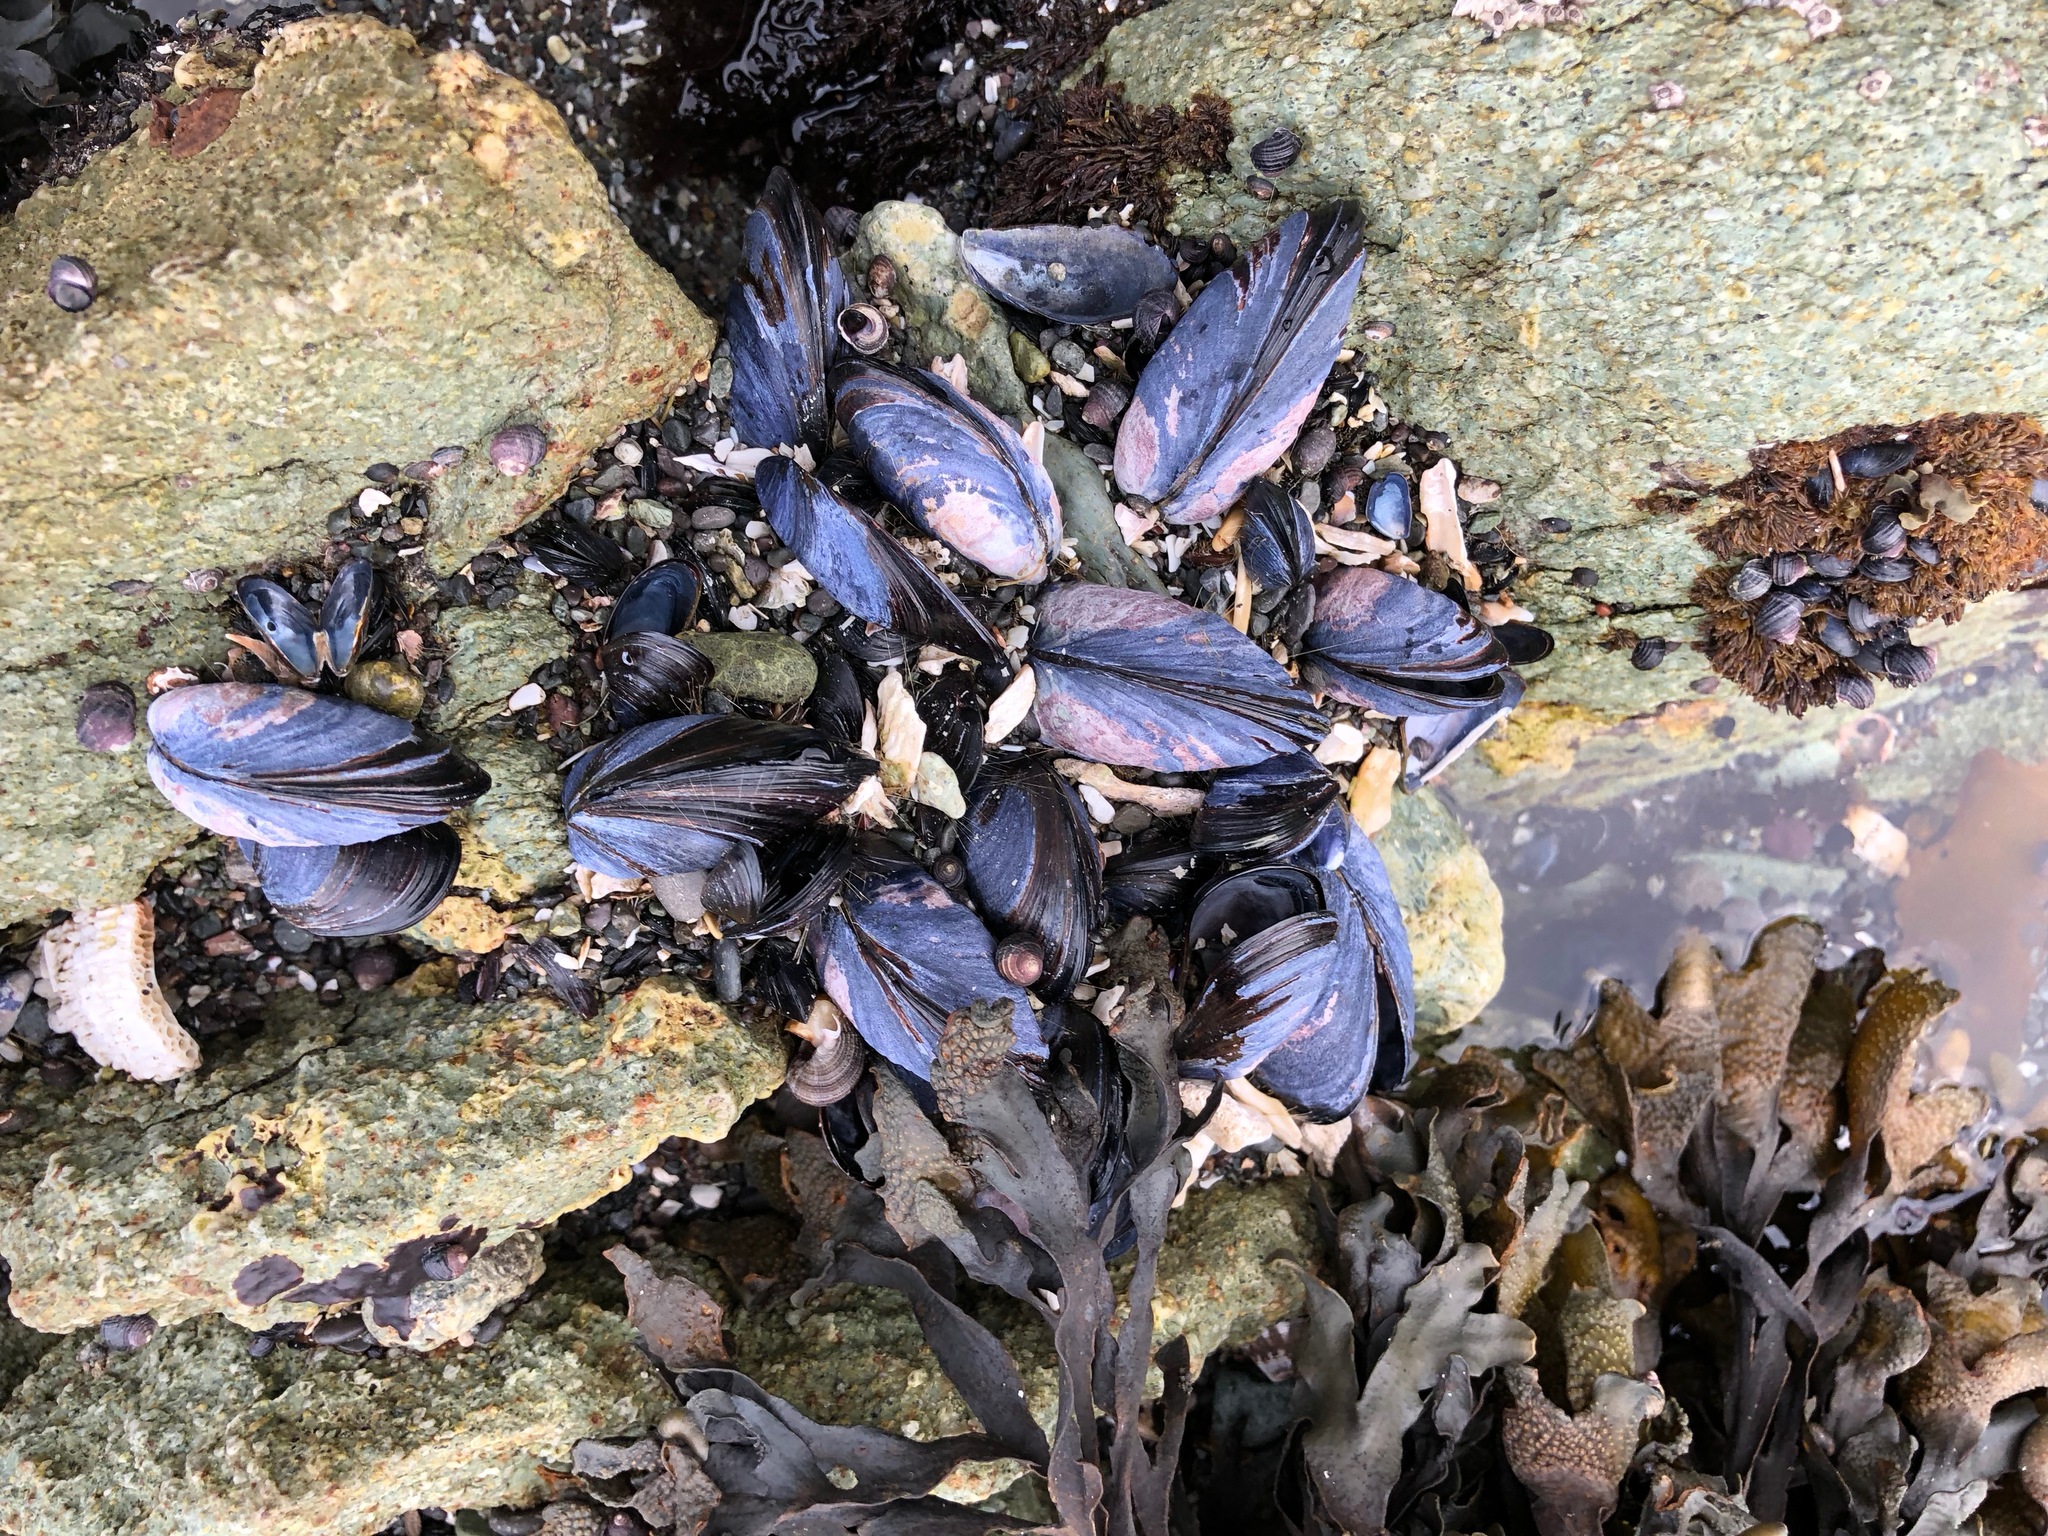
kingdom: Animalia
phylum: Mollusca
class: Bivalvia
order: Mytilida
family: Mytilidae
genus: Mytilus
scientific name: Mytilus trossulus
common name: Northern blue mussel
